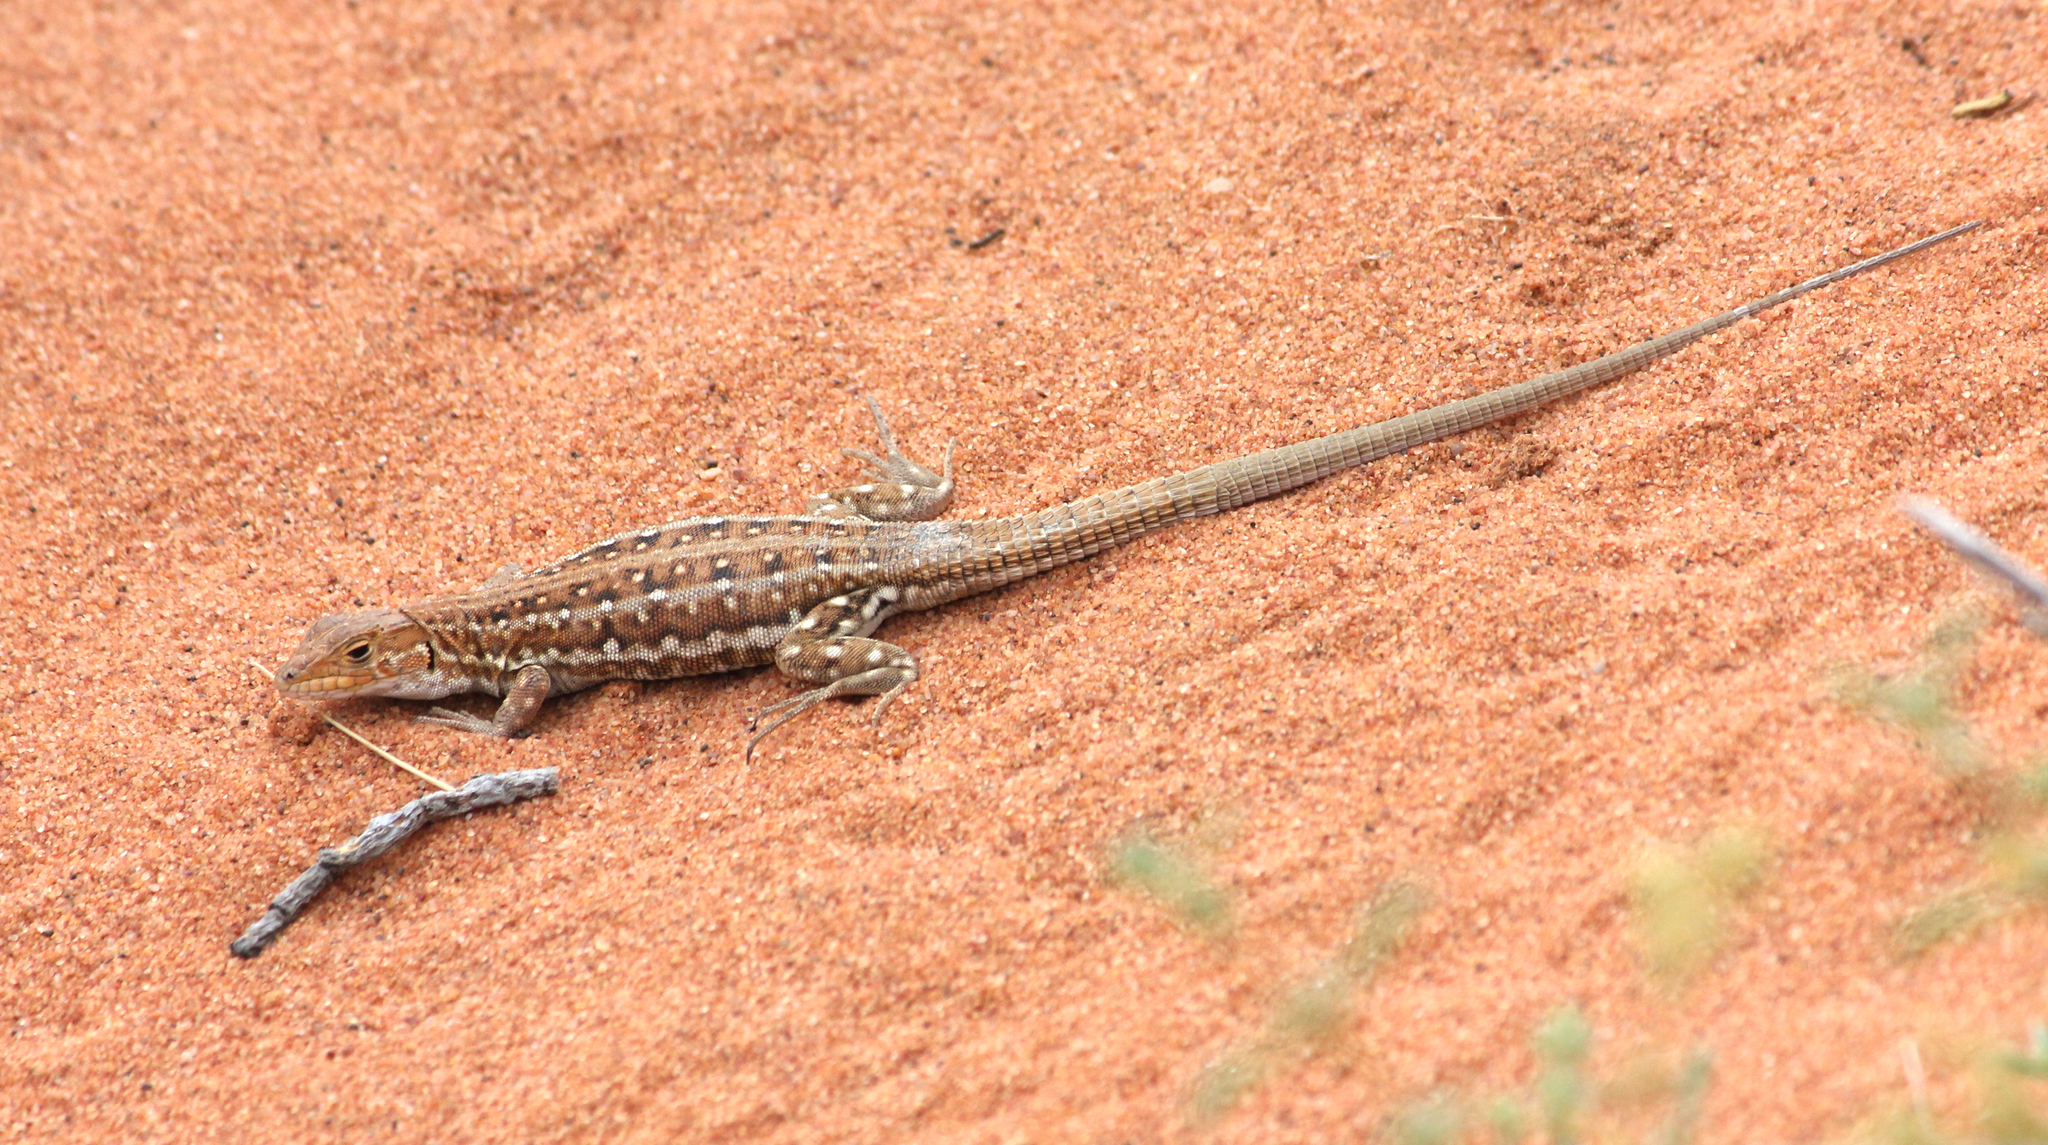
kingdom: Animalia
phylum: Chordata
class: Squamata
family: Lacertidae
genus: Meroles
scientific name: Meroles knoxii
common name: Knox's desert lizard
